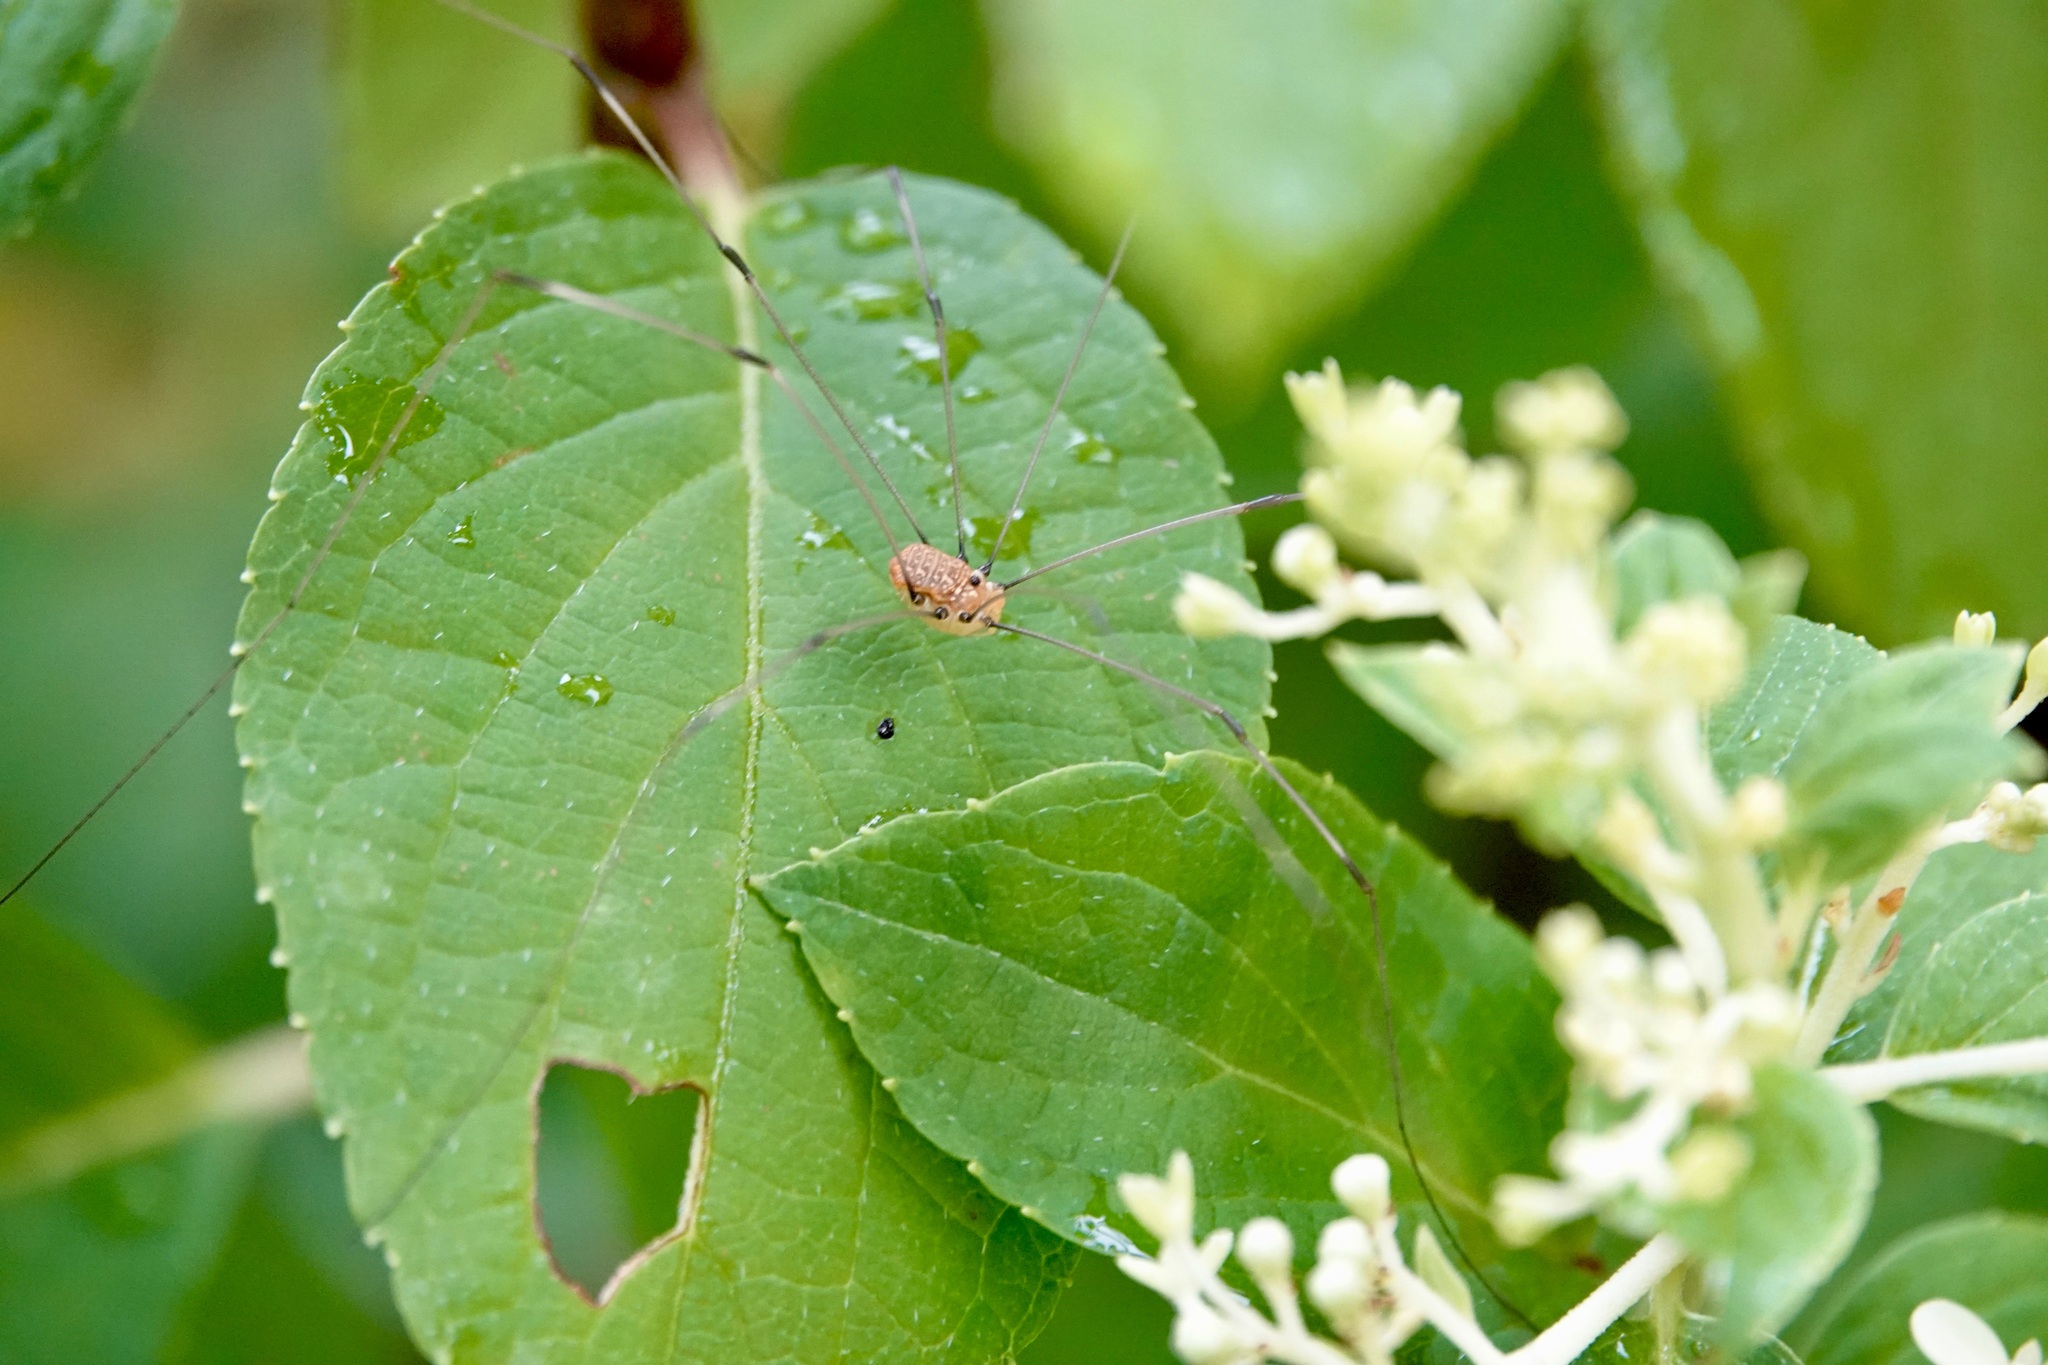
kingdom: Animalia
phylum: Arthropoda
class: Arachnida
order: Opiliones
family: Sclerosomatidae
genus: Leiobunum
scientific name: Leiobunum uxorium
